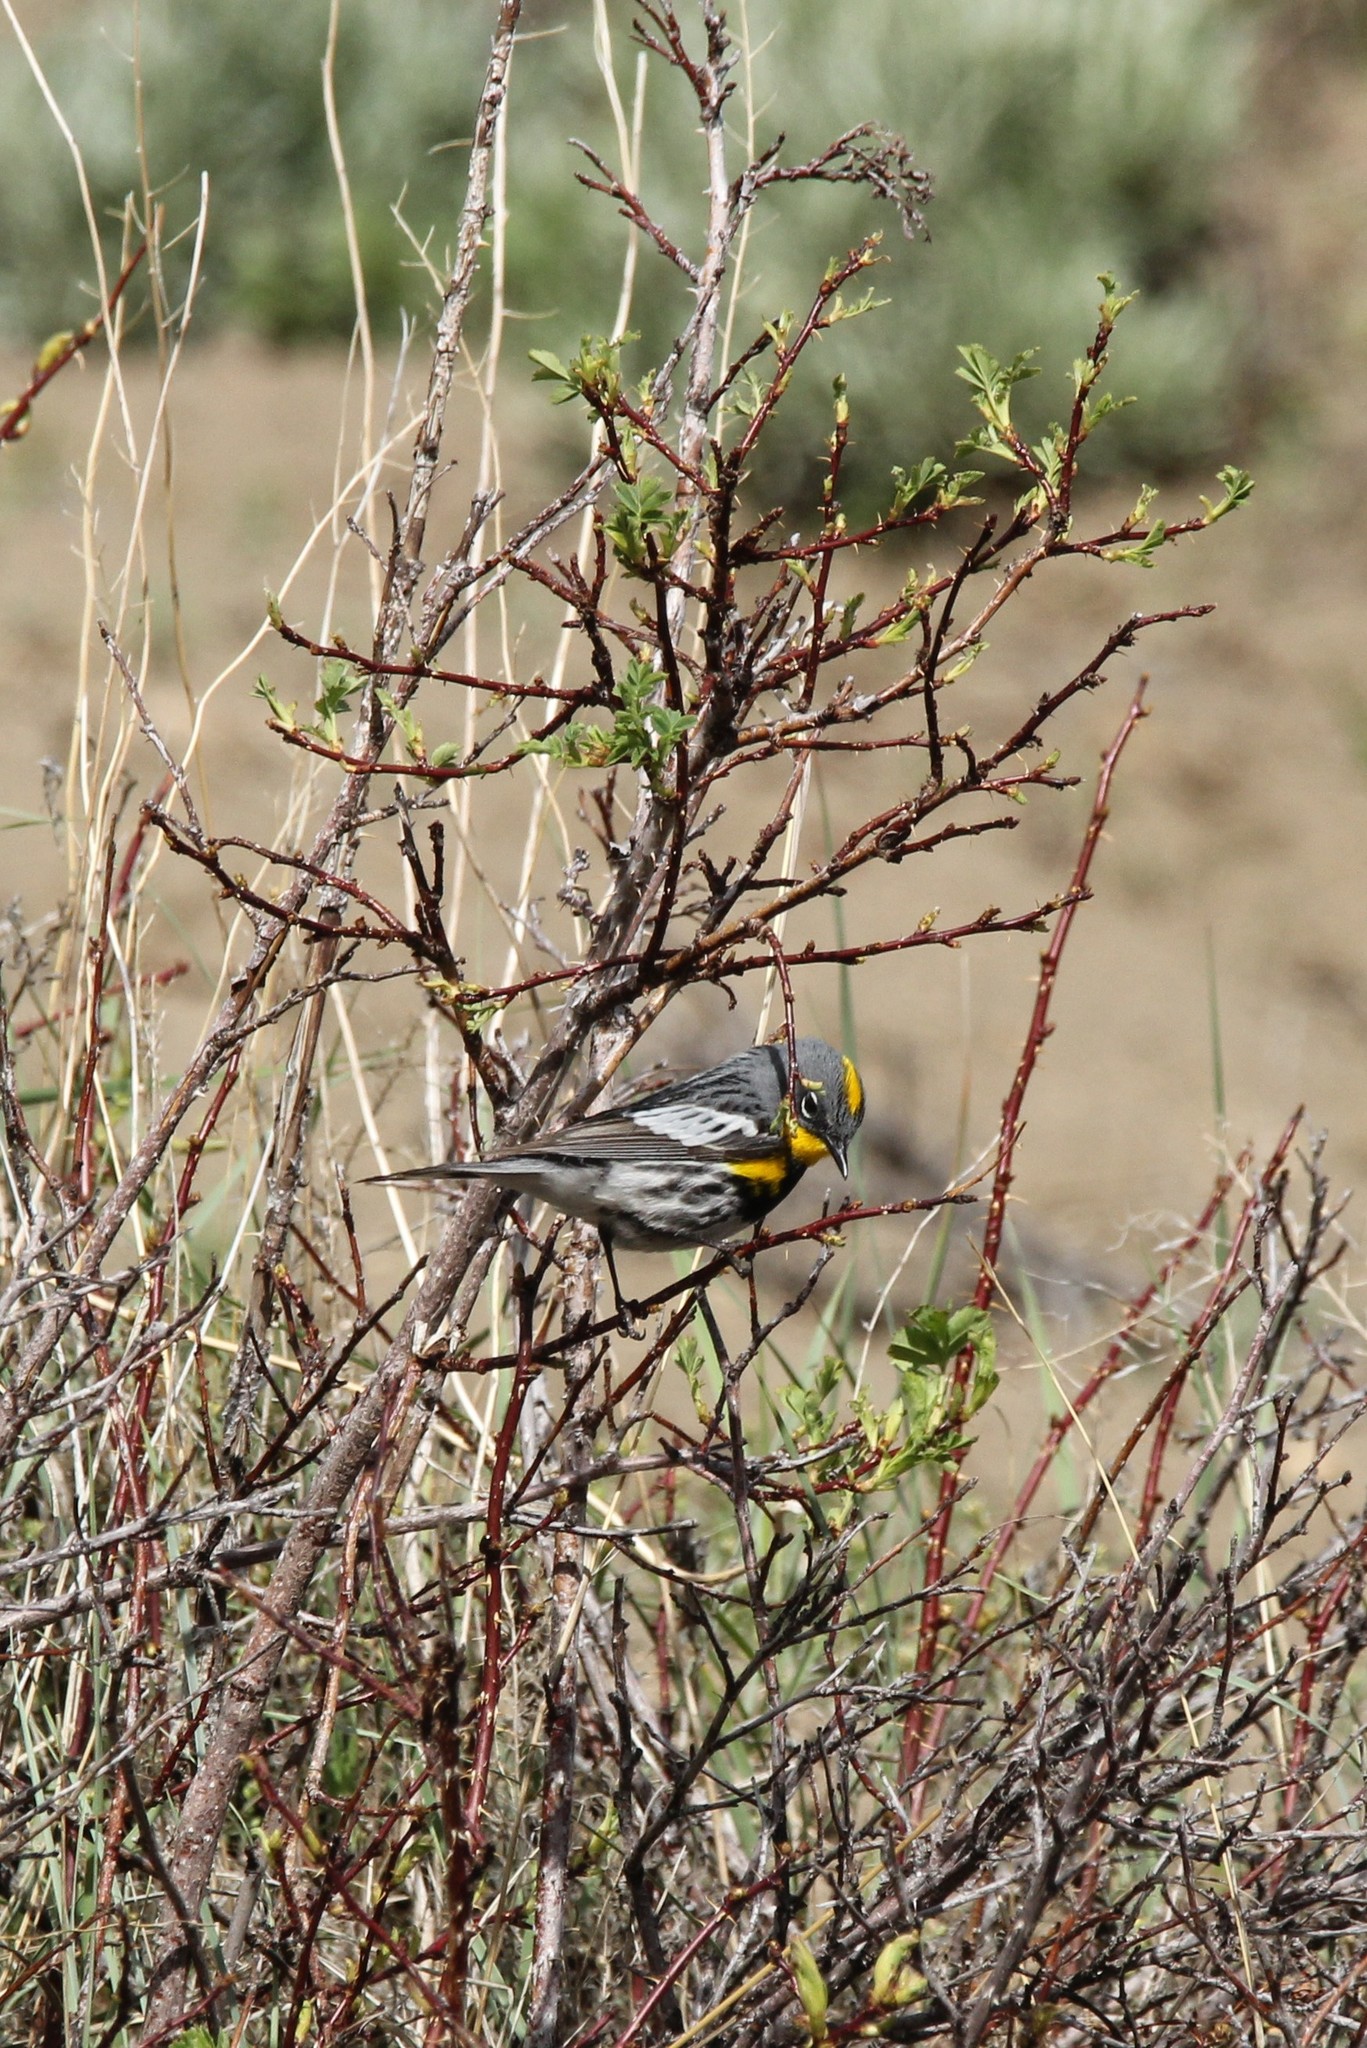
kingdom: Animalia
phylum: Chordata
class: Aves
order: Passeriformes
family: Parulidae
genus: Setophaga
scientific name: Setophaga auduboni
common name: Audubon's warbler
